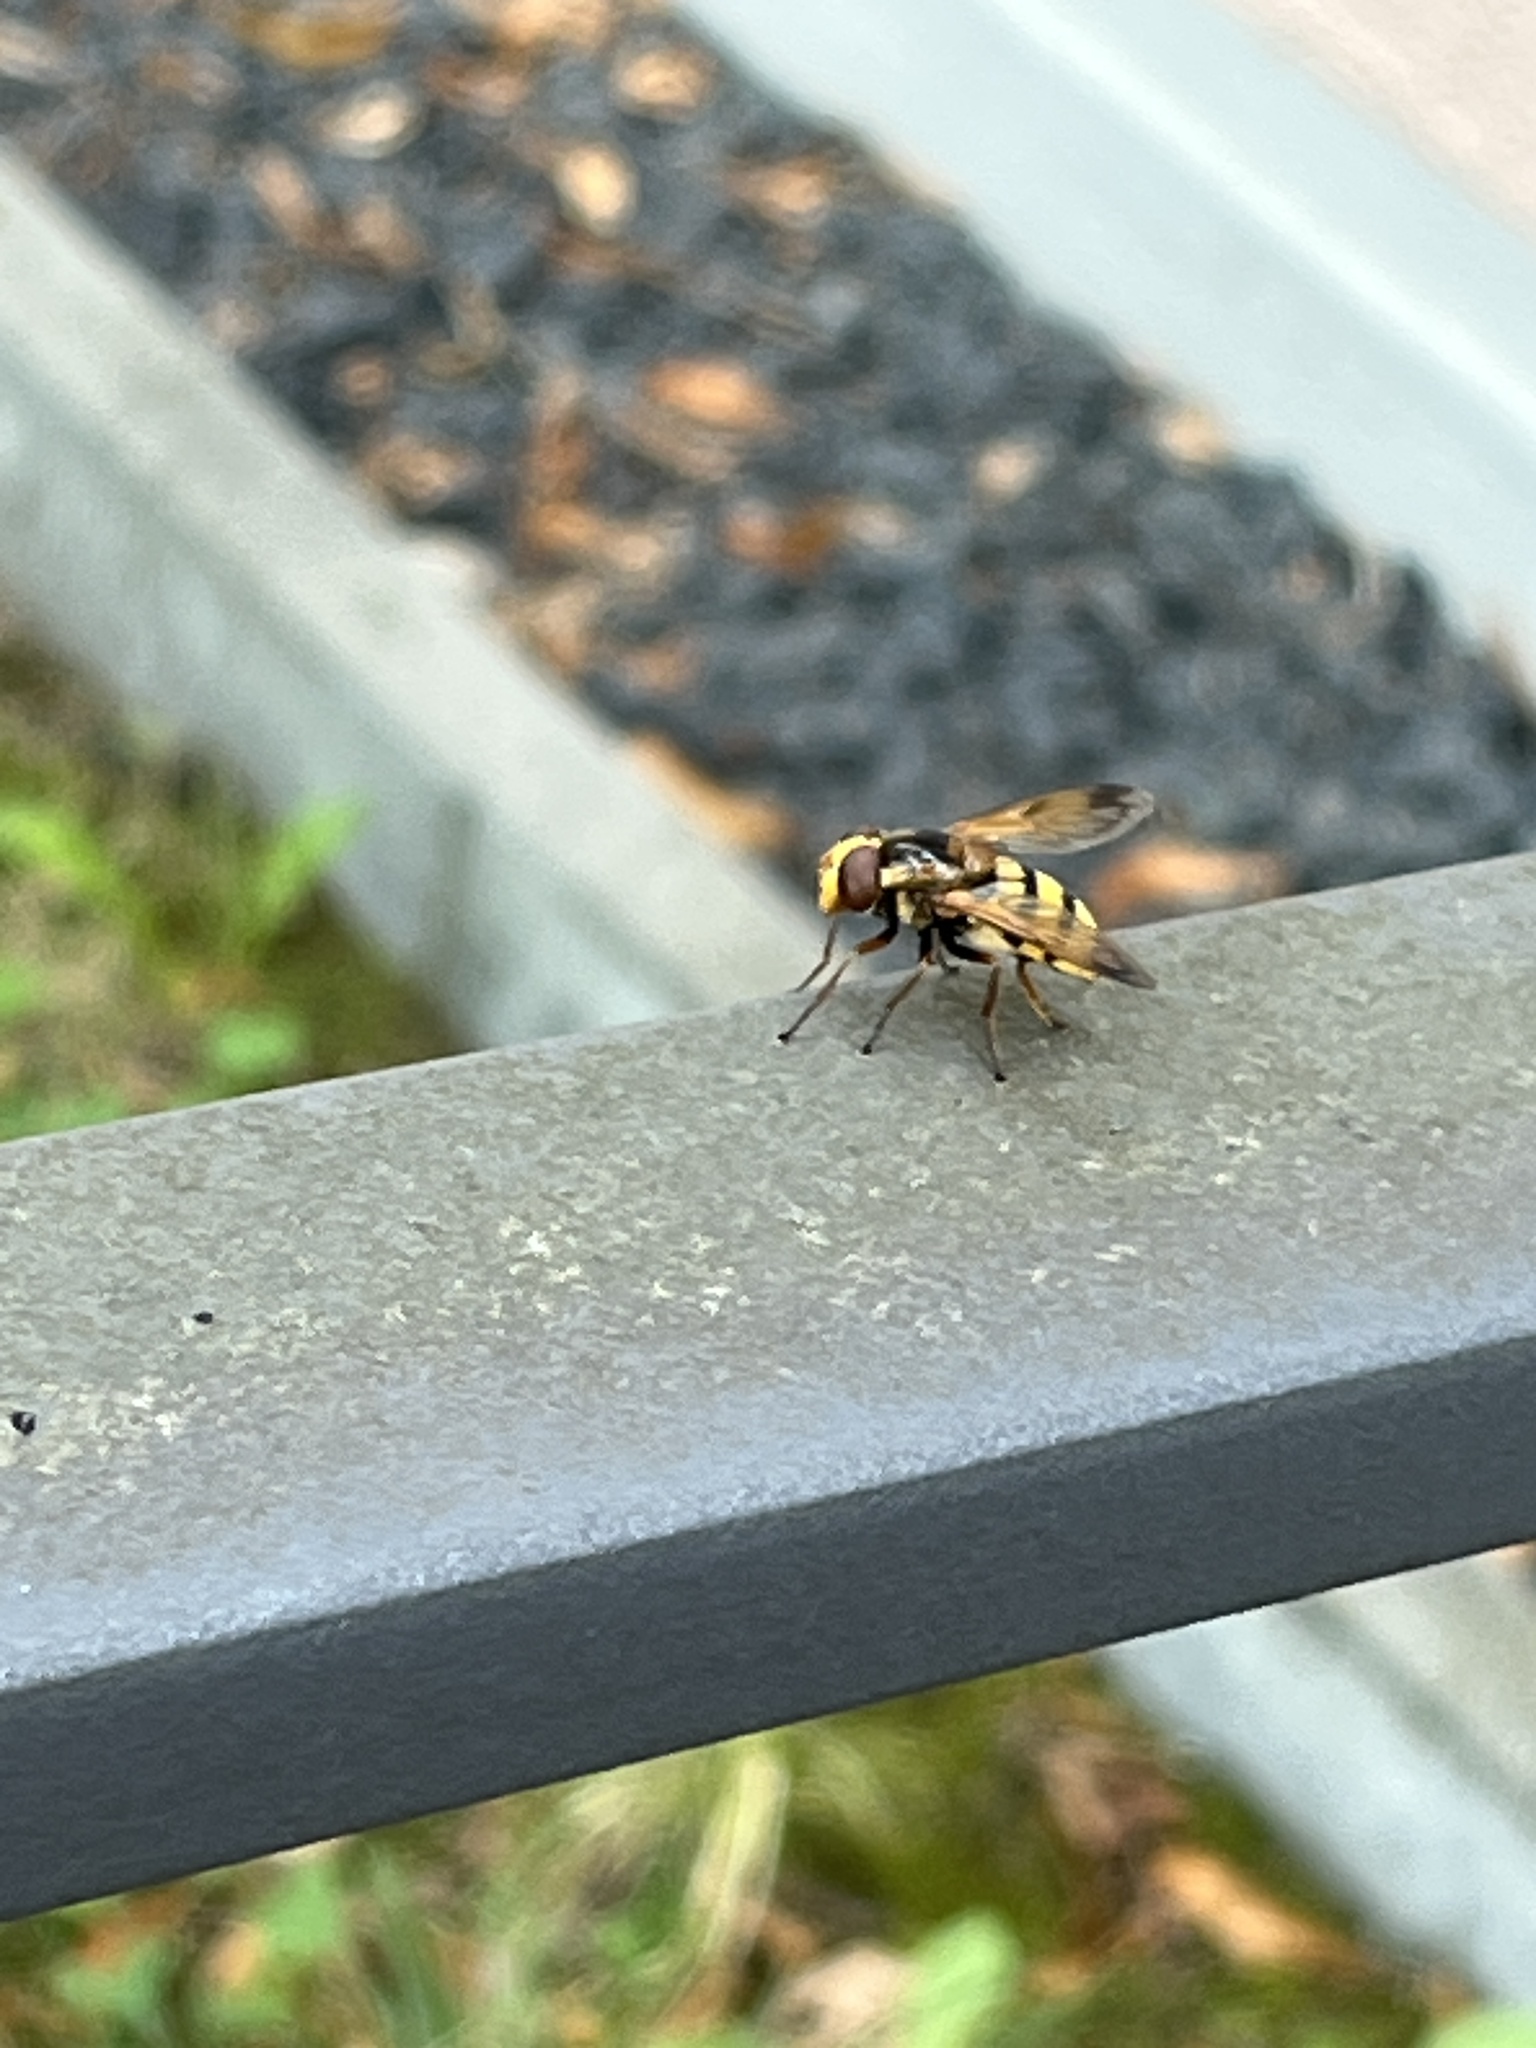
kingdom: Animalia
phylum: Arthropoda
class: Insecta
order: Diptera
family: Syrphidae
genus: Volucella
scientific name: Volucella inanis
